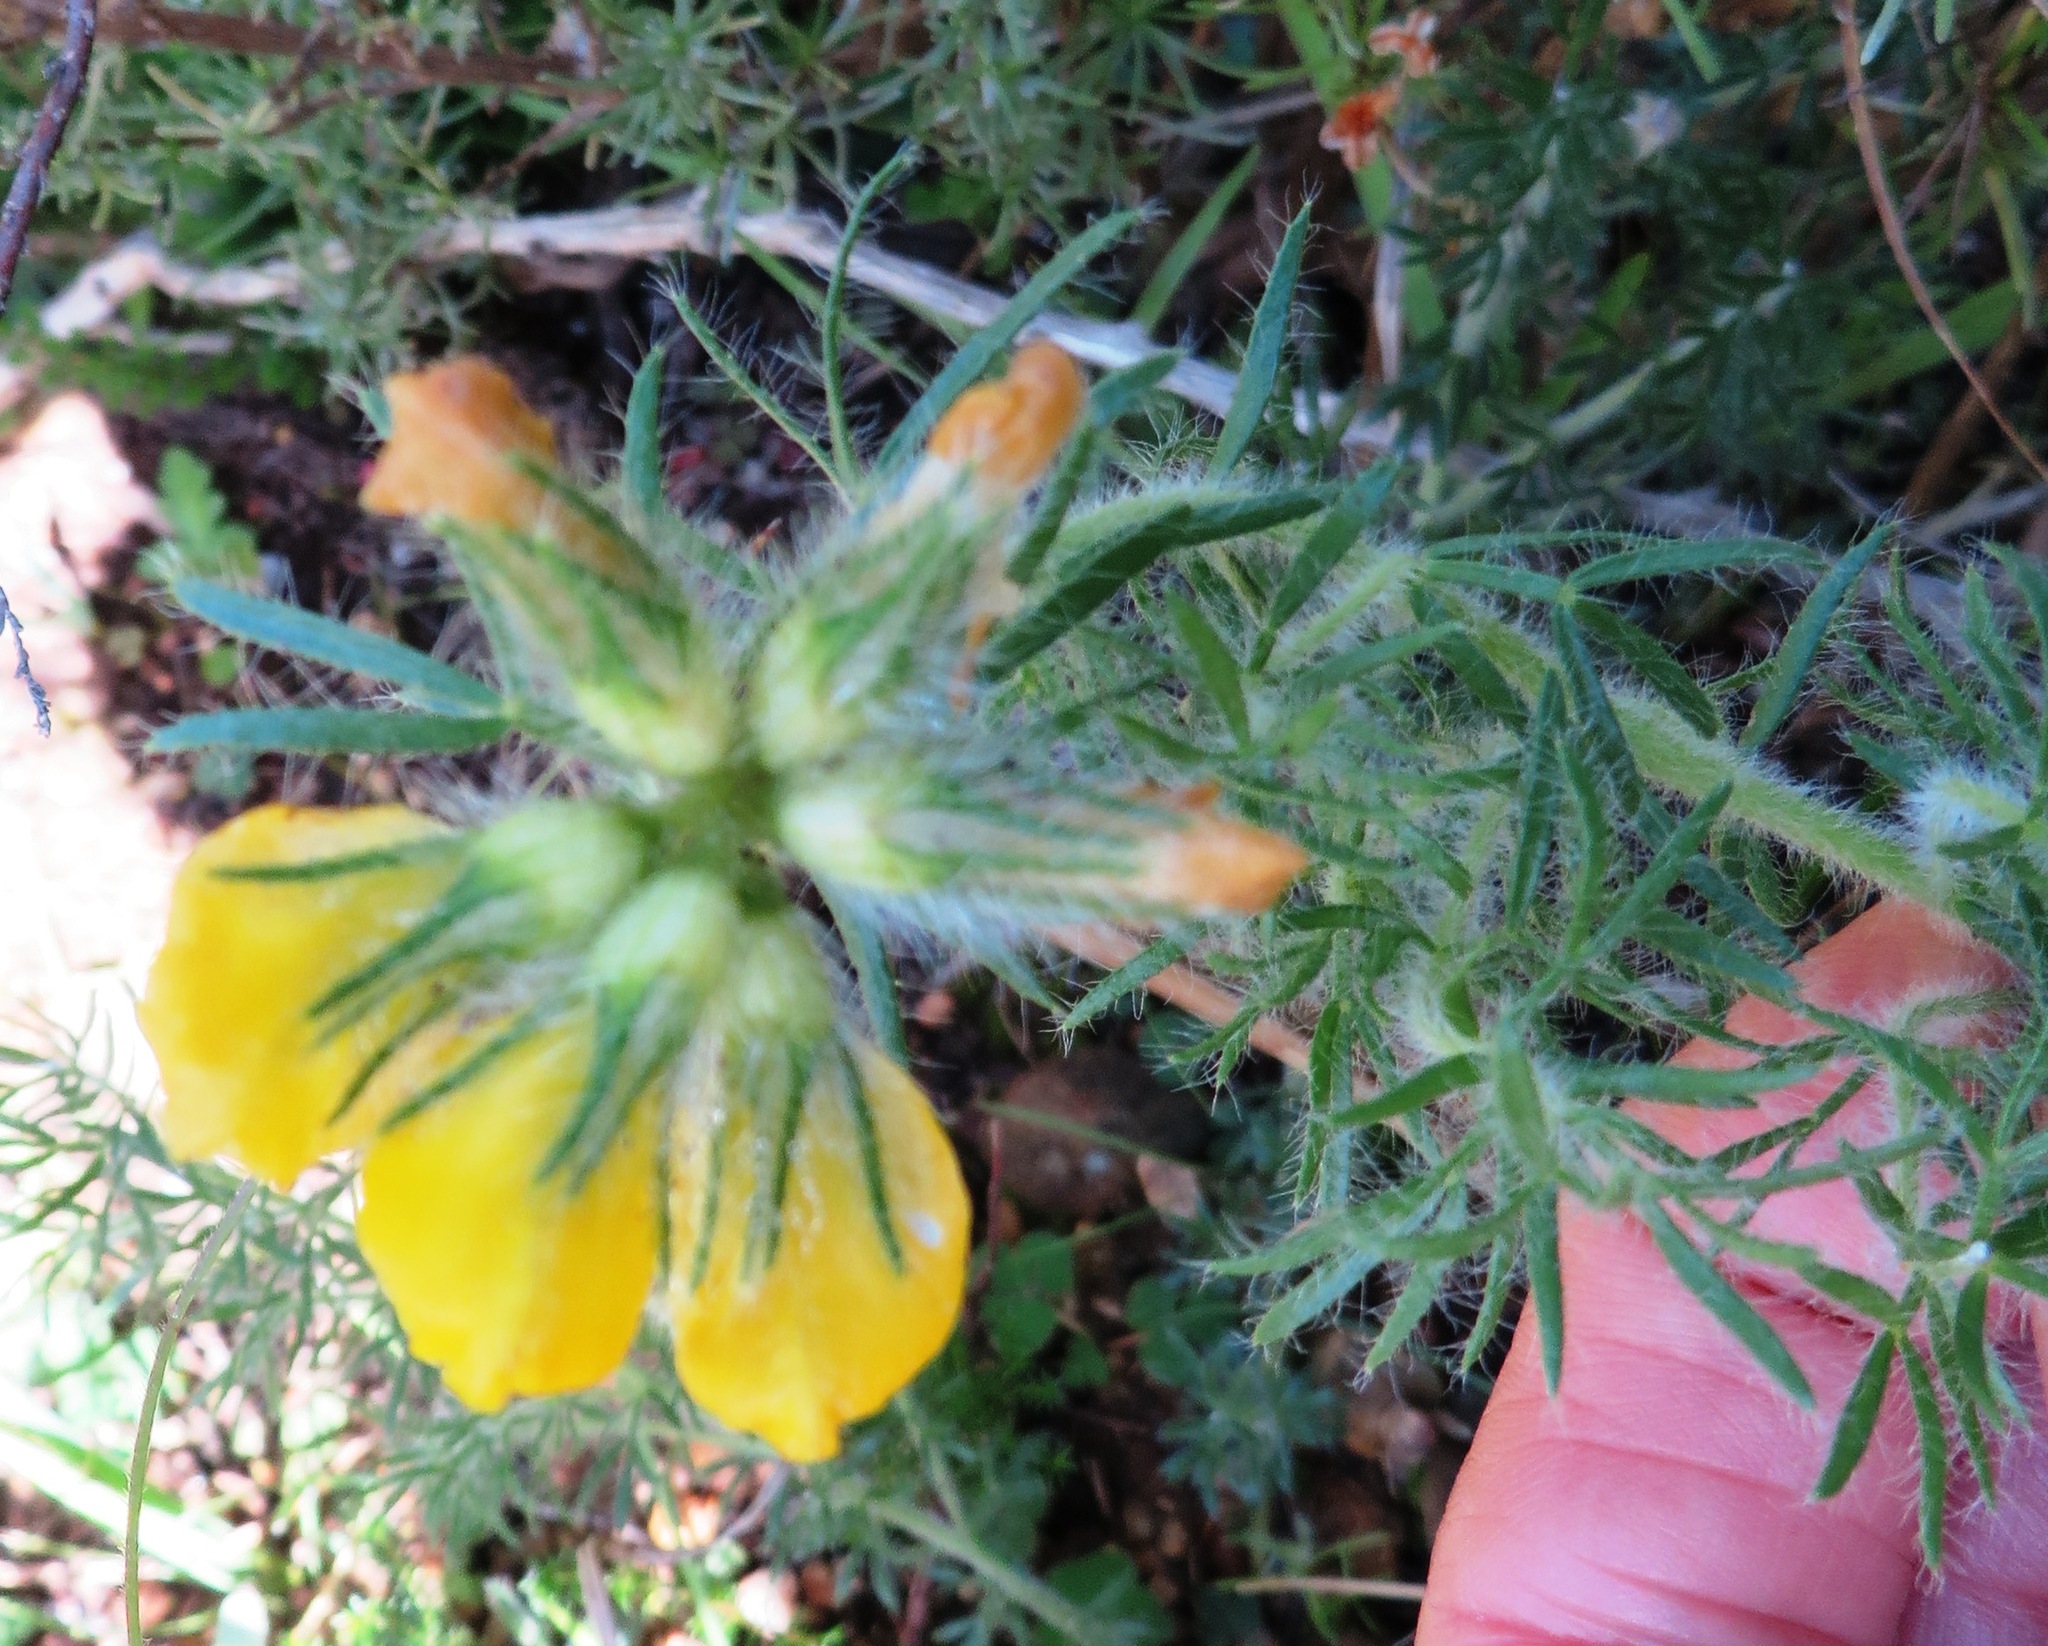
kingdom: Plantae
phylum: Tracheophyta
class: Magnoliopsida
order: Fabales
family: Fabaceae
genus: Lotononis
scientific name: Lotononis involucrata
